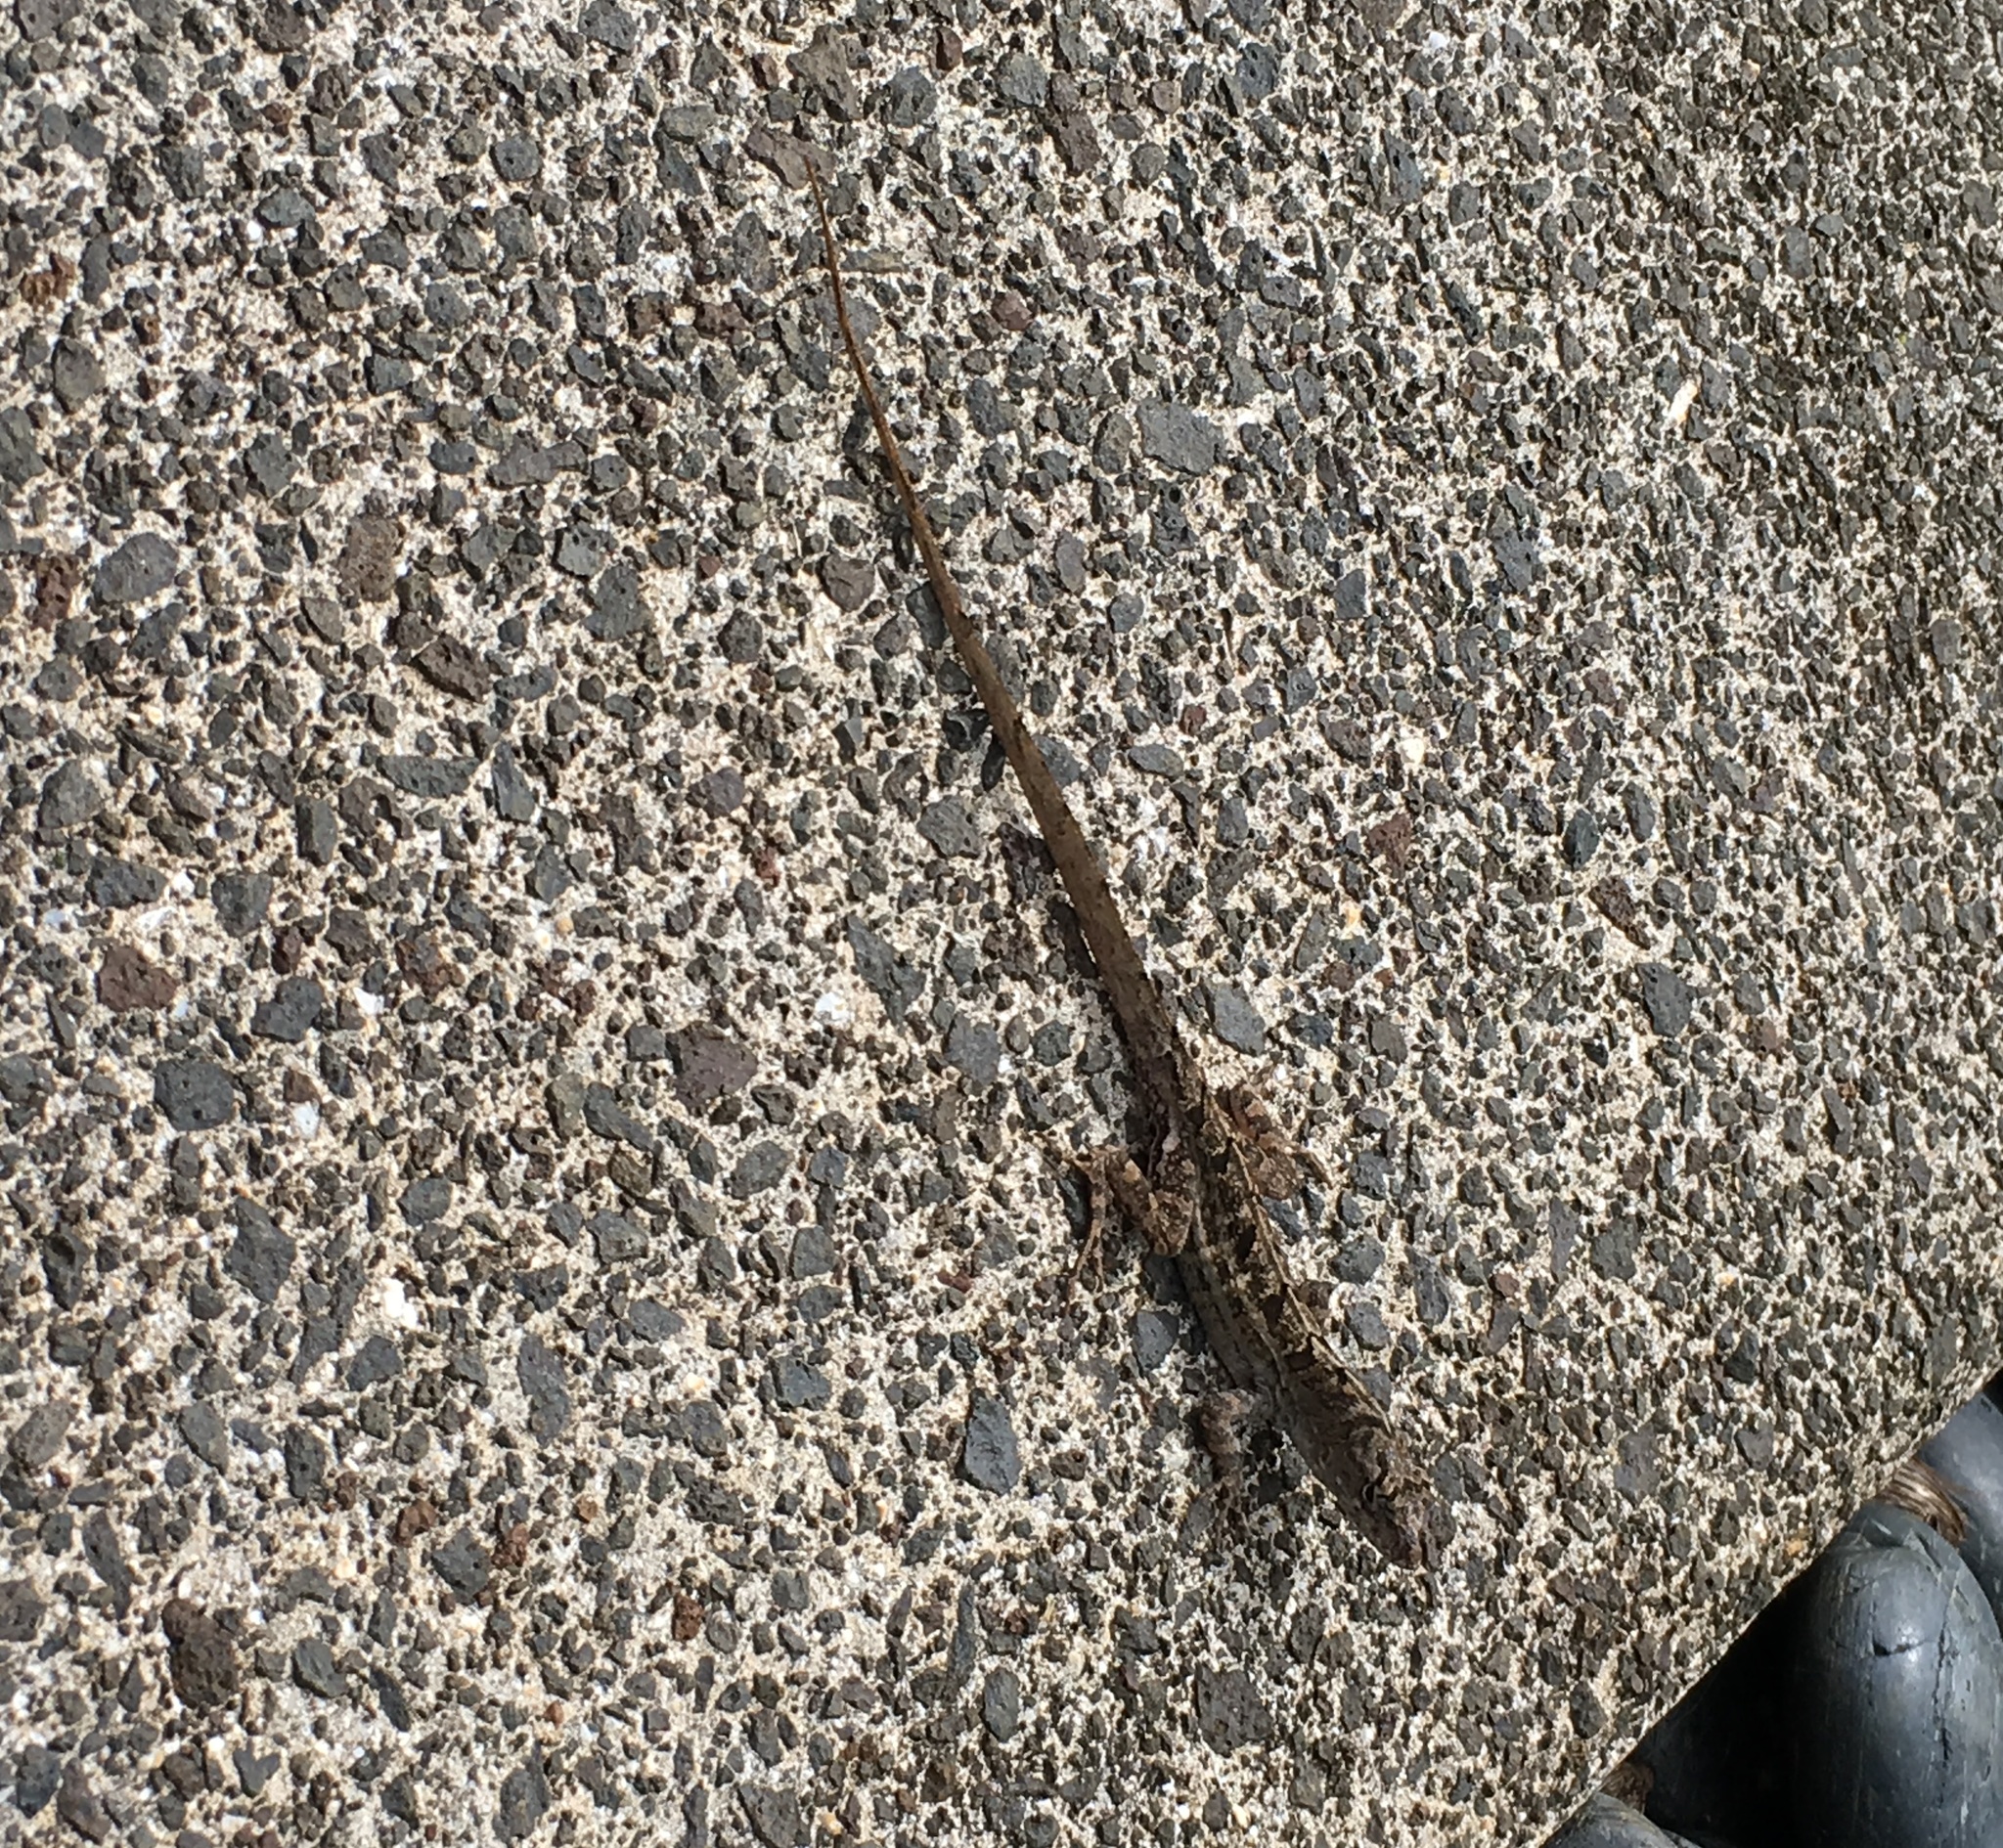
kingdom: Animalia
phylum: Chordata
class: Squamata
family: Dactyloidae
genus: Anolis
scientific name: Anolis sagrei
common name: Brown anole
